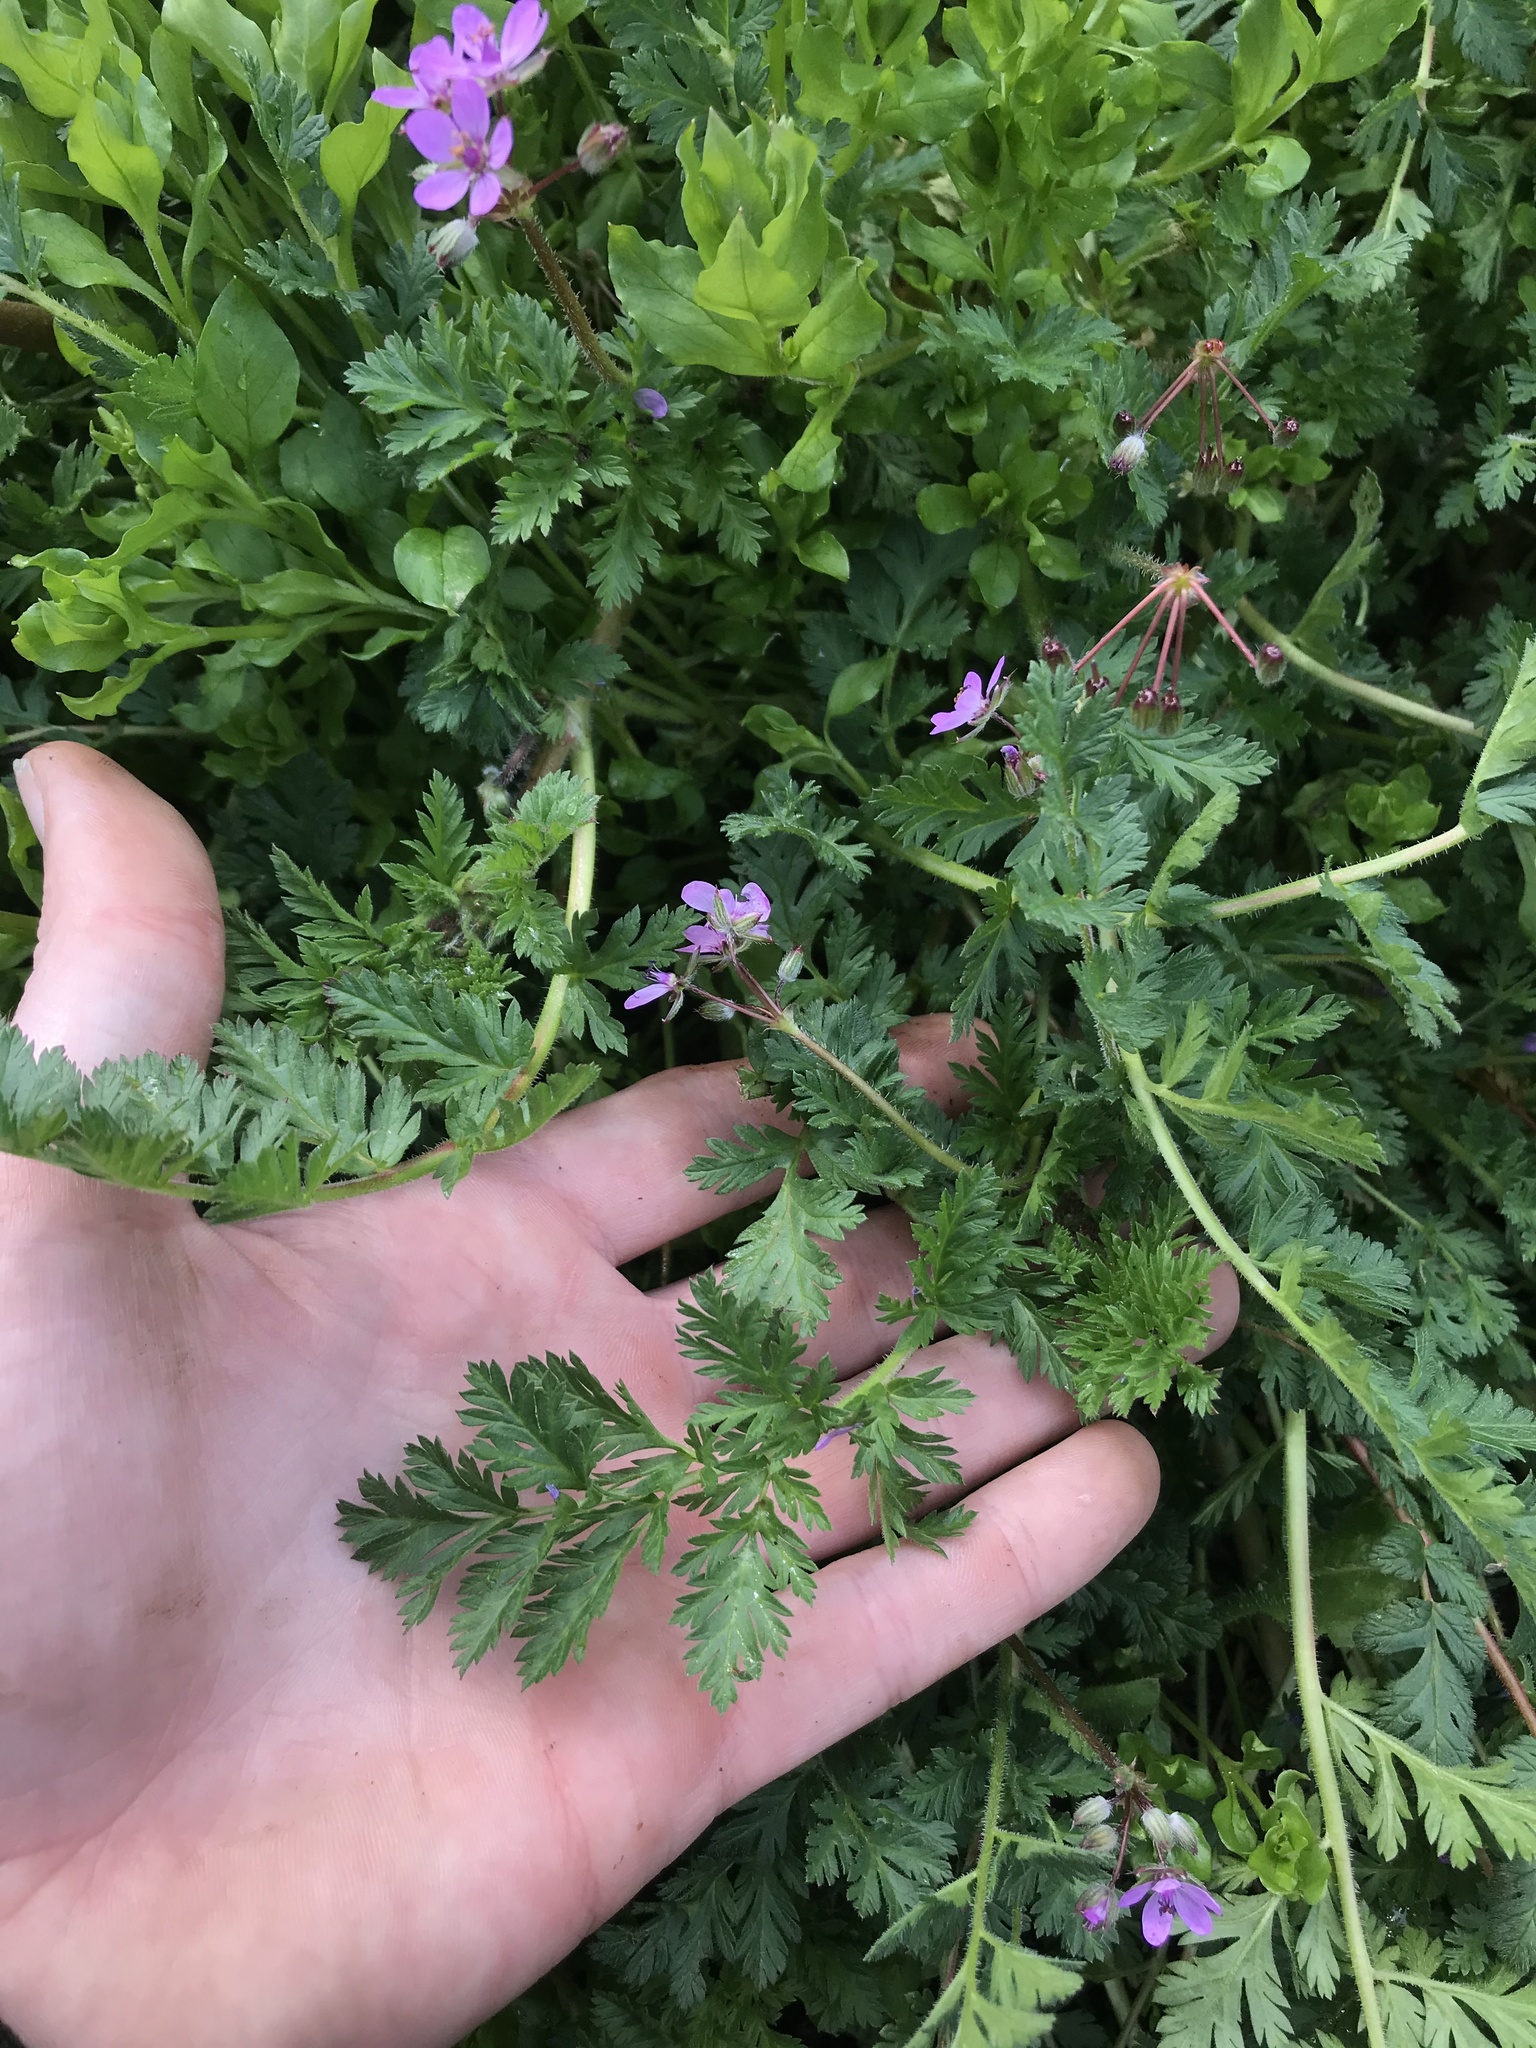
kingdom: Plantae
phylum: Tracheophyta
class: Magnoliopsida
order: Geraniales
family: Geraniaceae
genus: Erodium
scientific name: Erodium cicutarium
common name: Common stork's-bill
